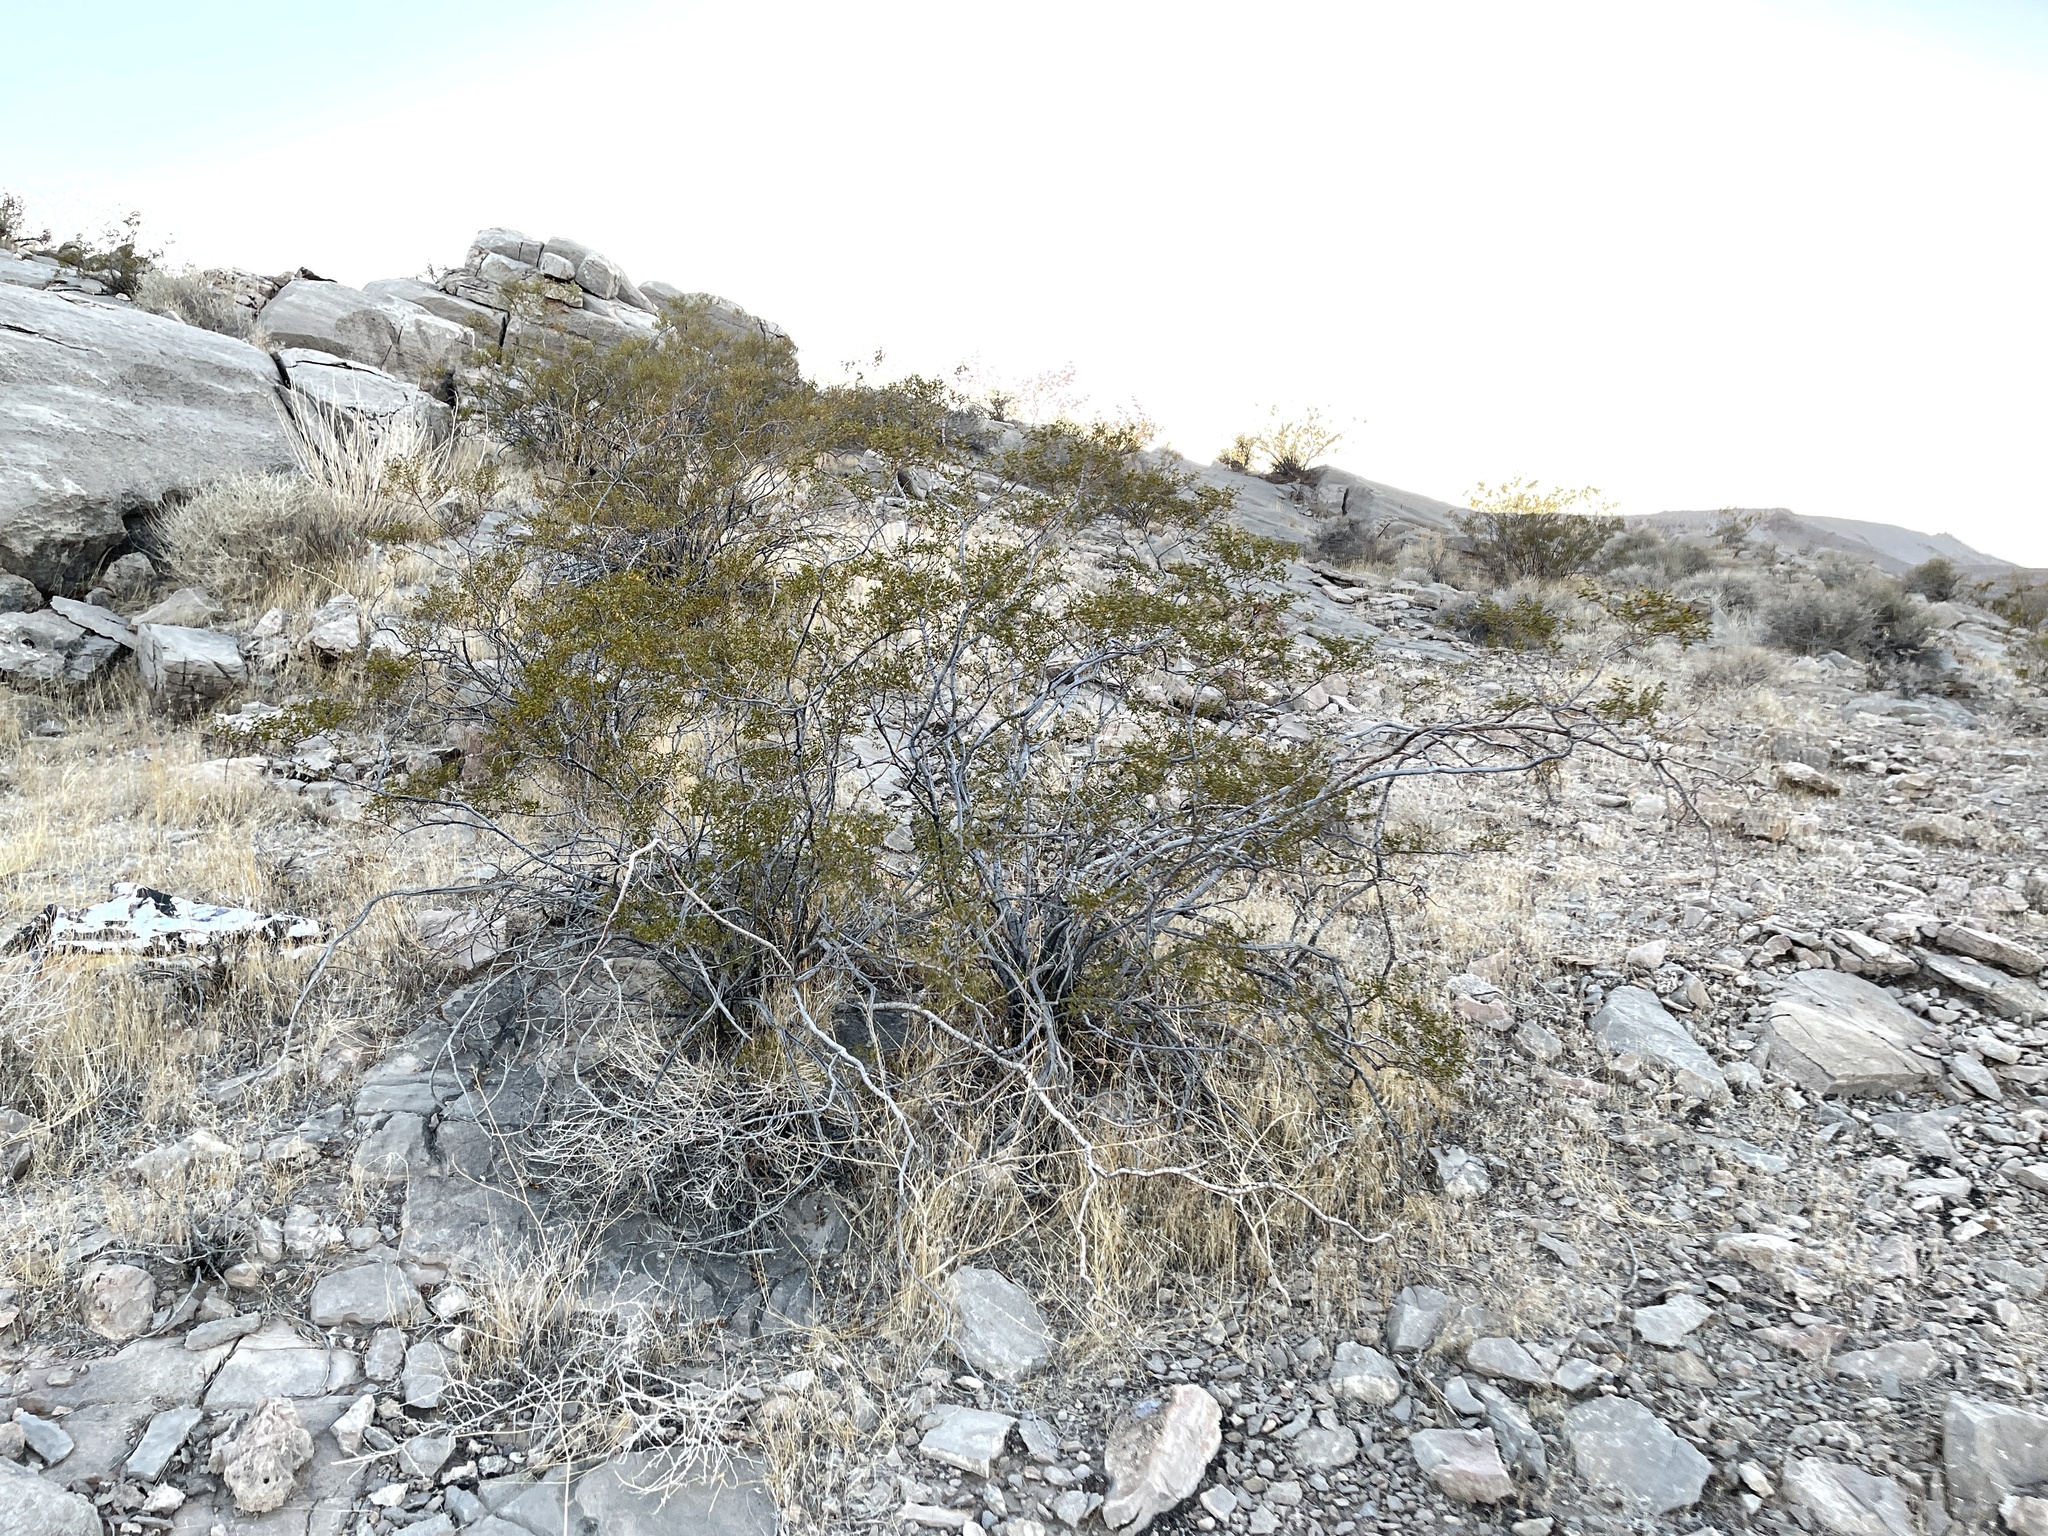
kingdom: Plantae
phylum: Tracheophyta
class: Magnoliopsida
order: Zygophyllales
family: Zygophyllaceae
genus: Larrea
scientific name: Larrea tridentata
